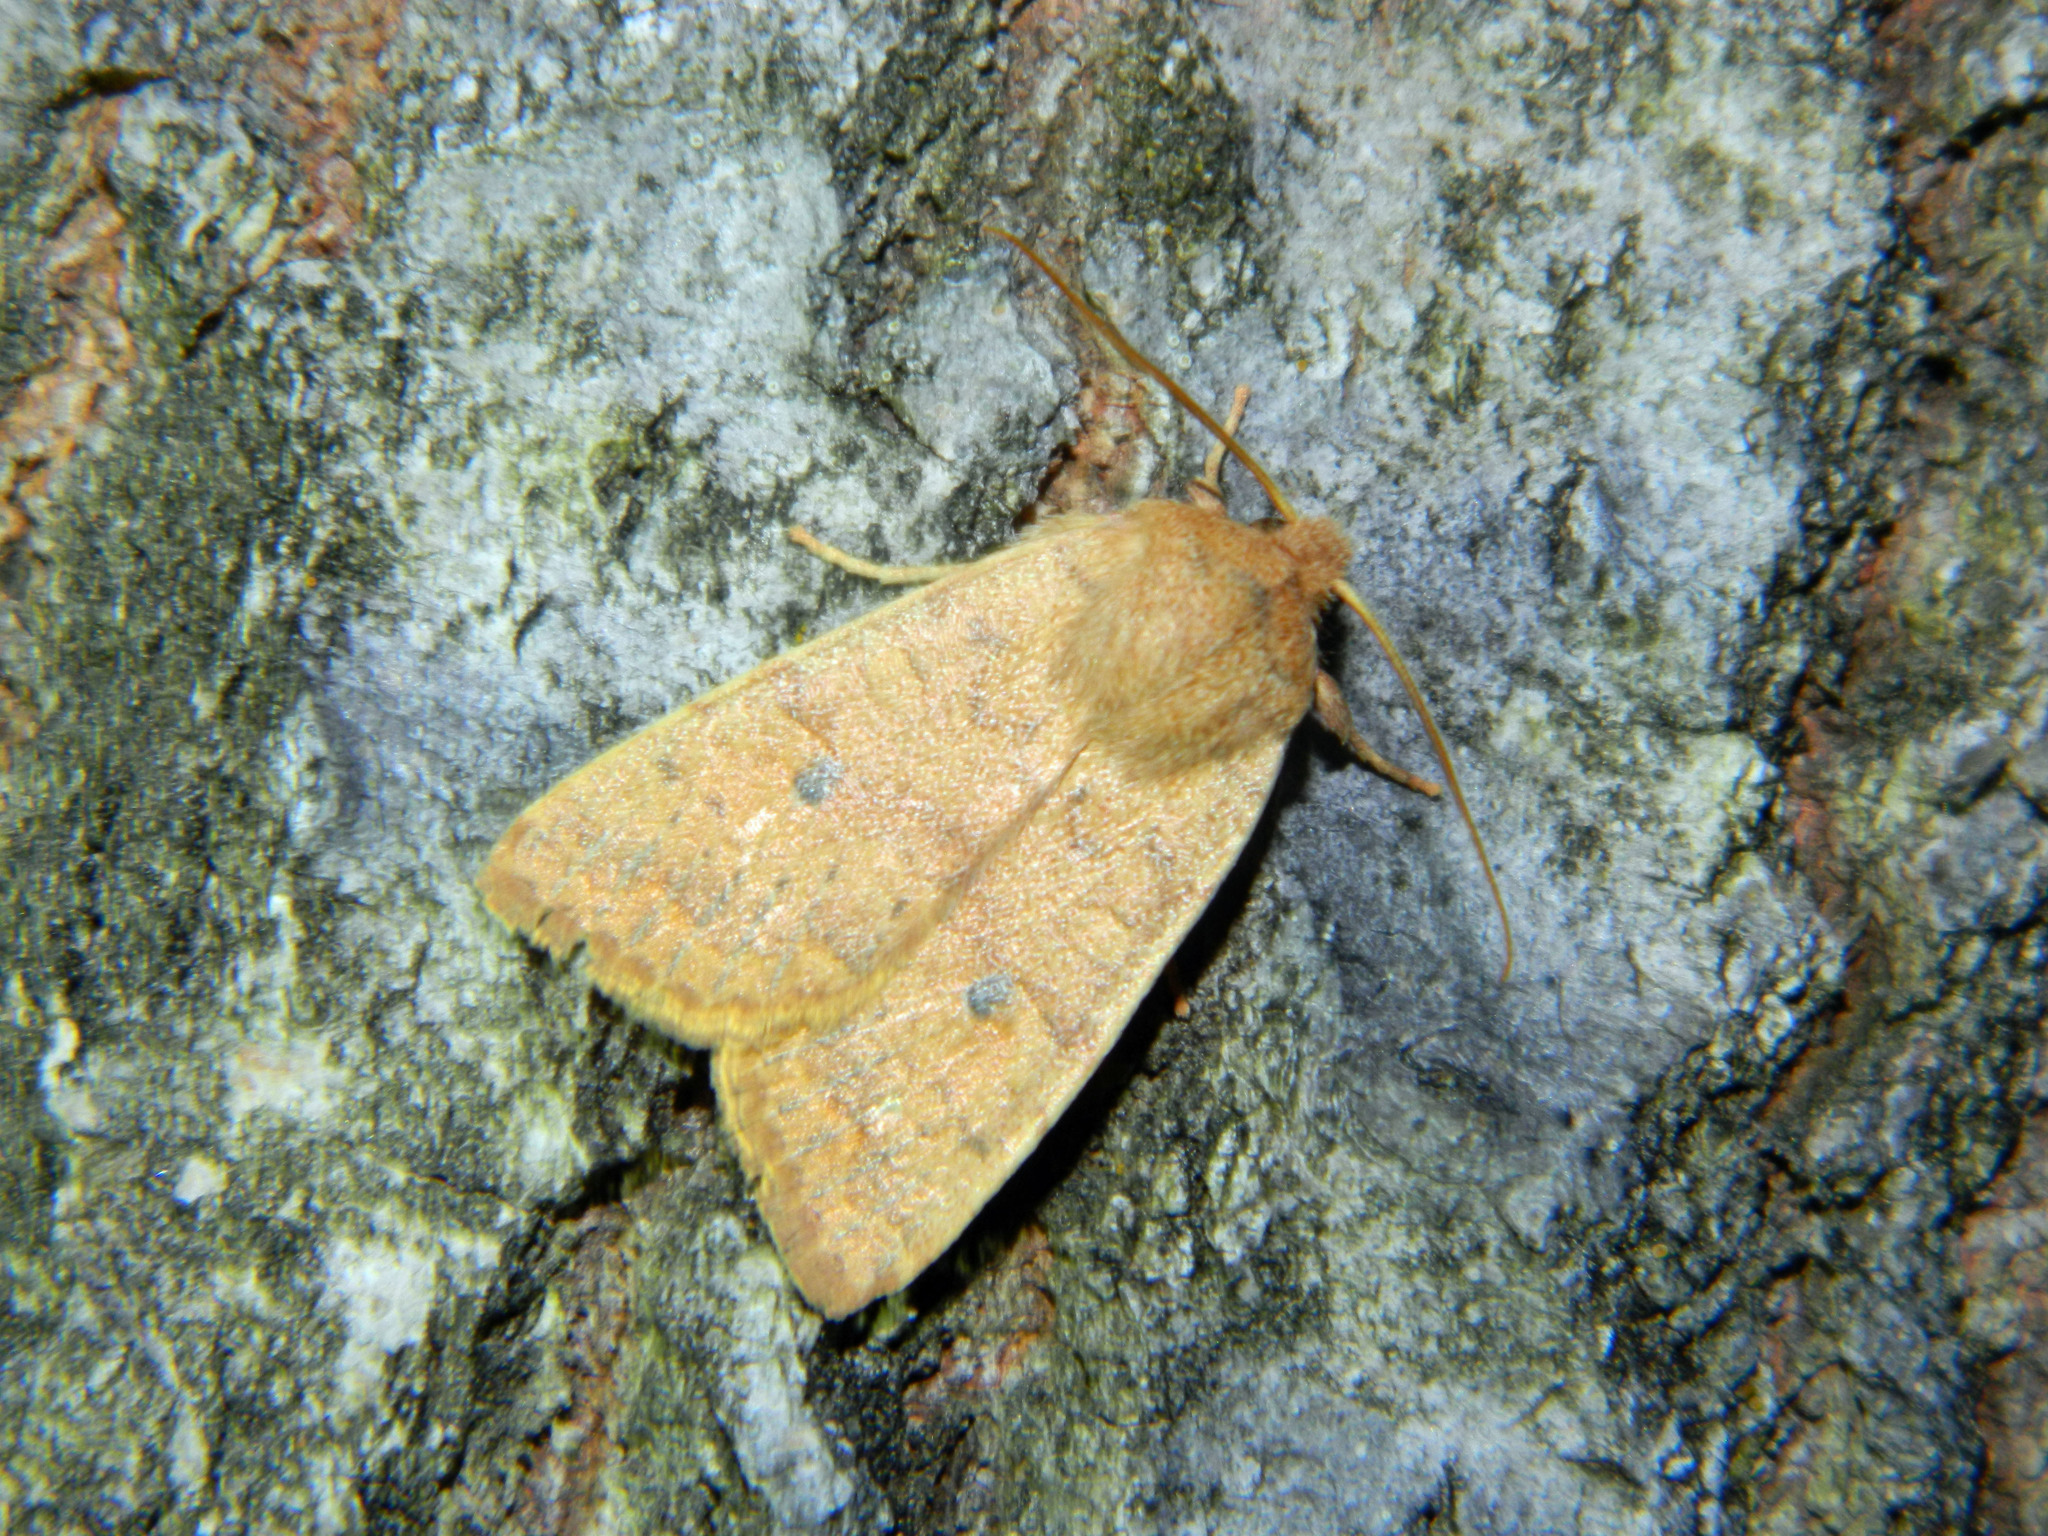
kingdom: Animalia
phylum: Arthropoda
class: Insecta
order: Lepidoptera
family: Noctuidae
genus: Agrochola
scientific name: Agrochola bicolorago
